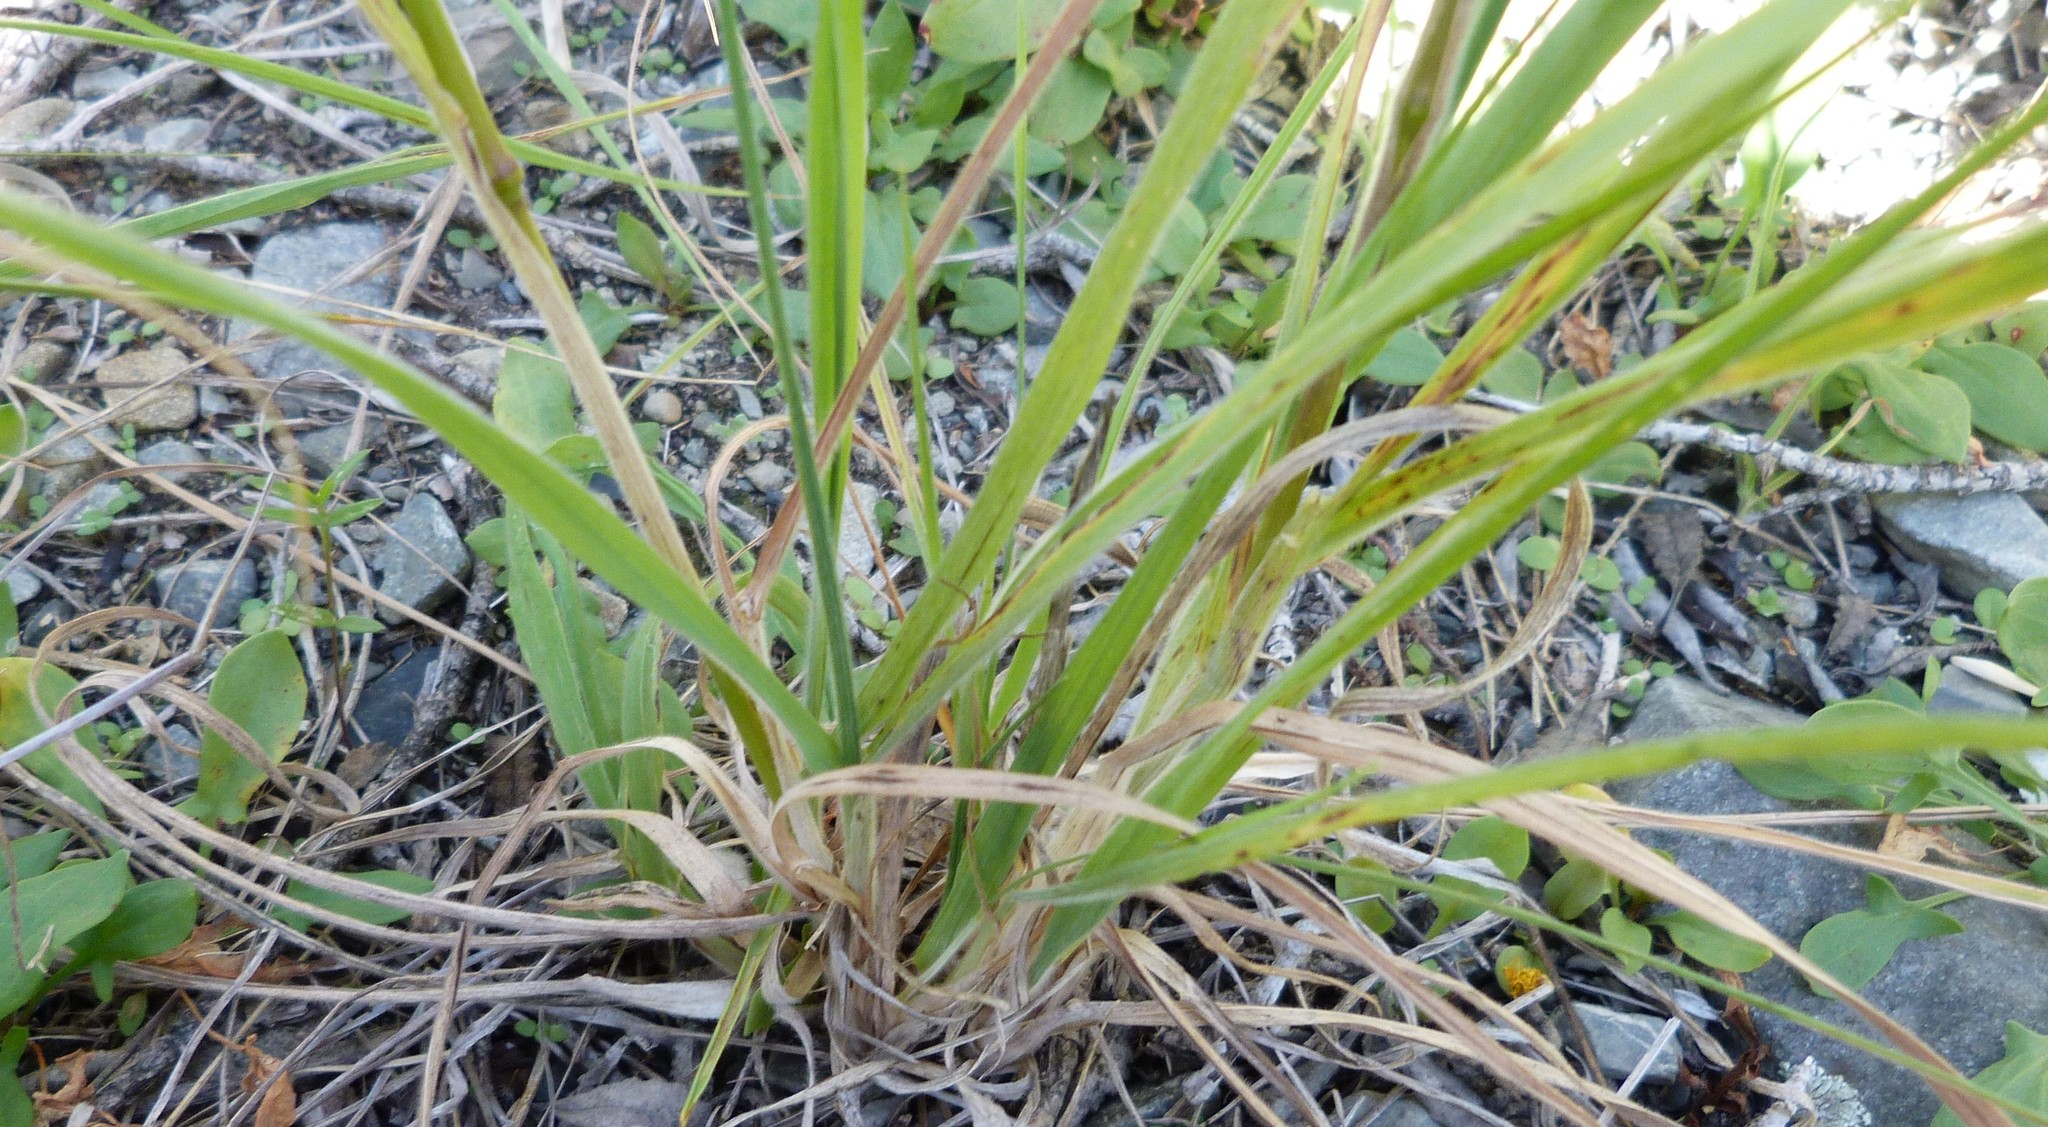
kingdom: Plantae
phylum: Tracheophyta
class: Liliopsida
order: Poales
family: Poaceae
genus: Bromus
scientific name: Bromus catharticus
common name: Rescuegrass
